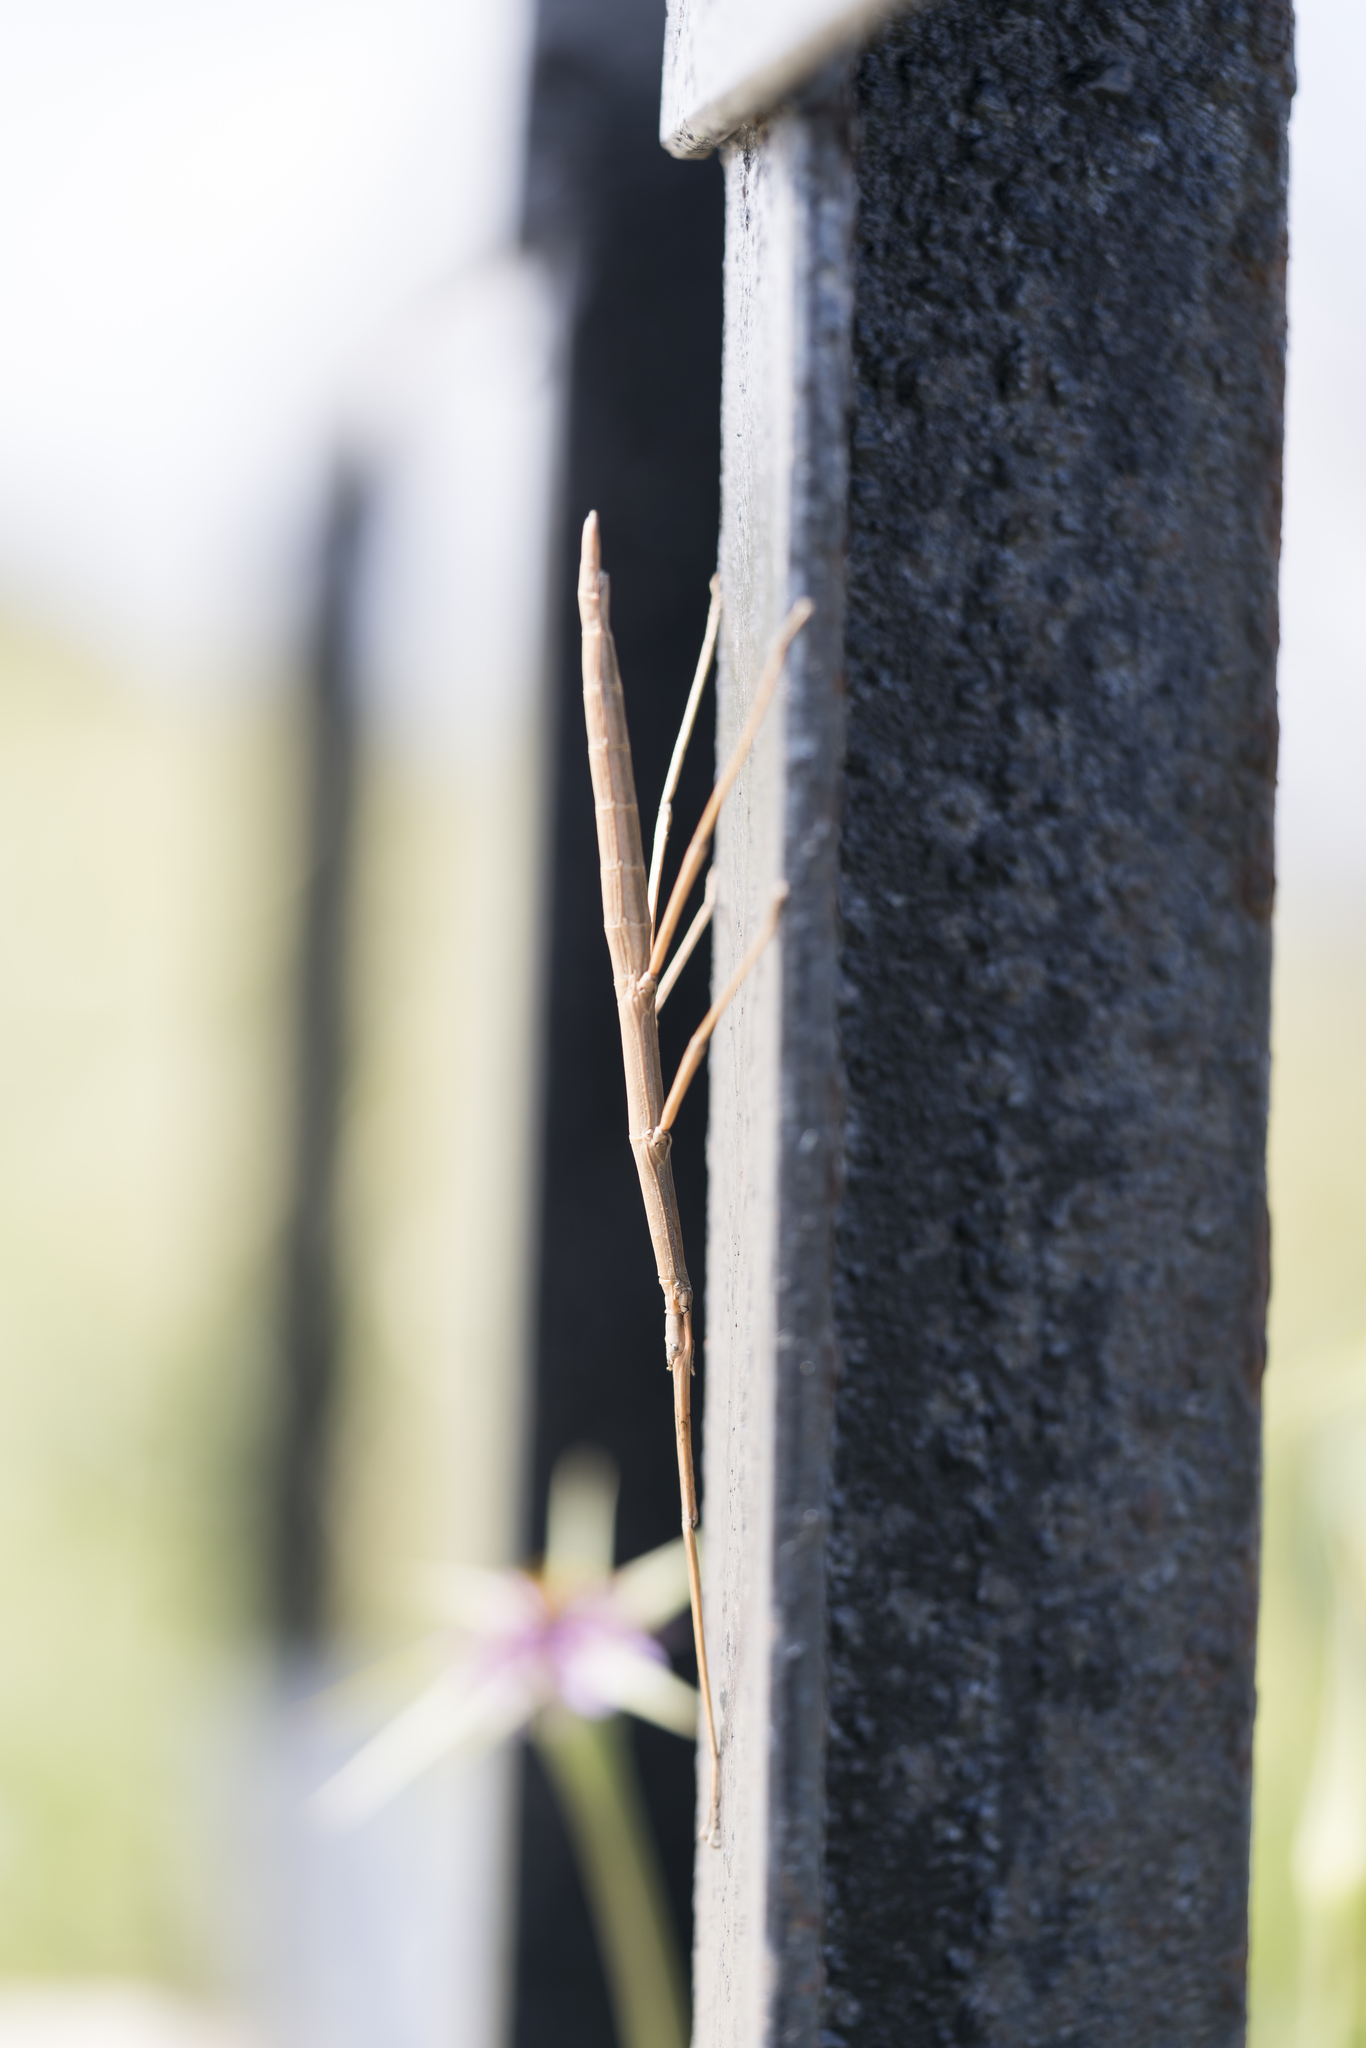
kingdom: Animalia
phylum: Arthropoda
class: Insecta
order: Phasmida
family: Bacillidae
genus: Bacillus
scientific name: Bacillus atticus
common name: Greek stick-insect
